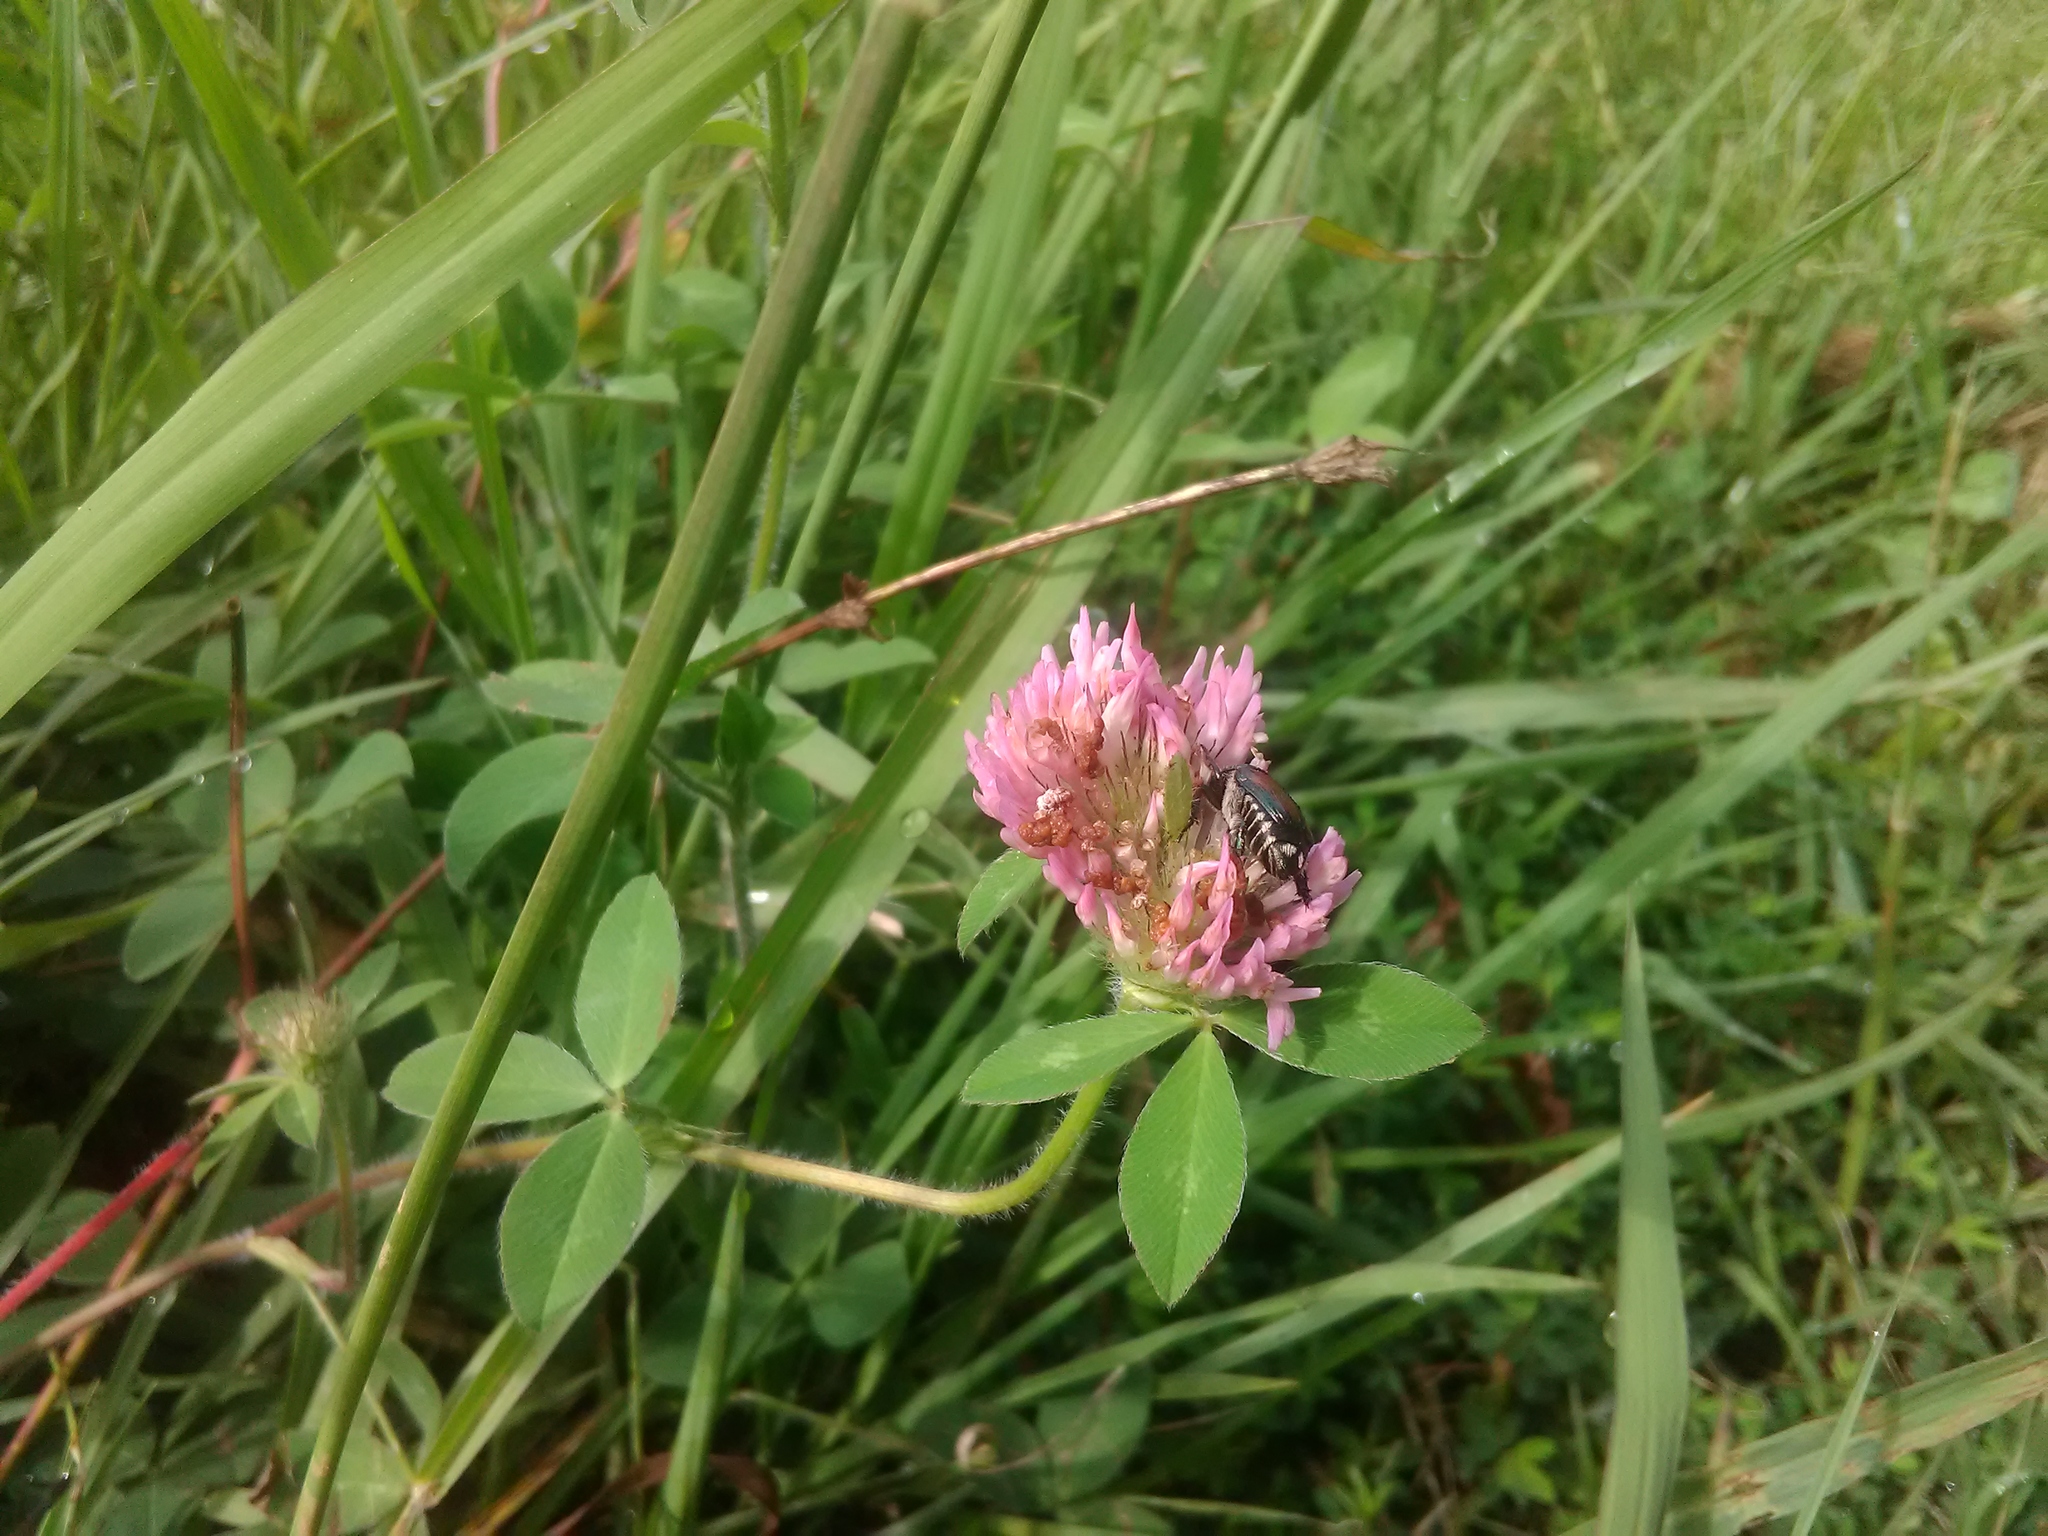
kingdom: Plantae
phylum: Tracheophyta
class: Magnoliopsida
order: Fabales
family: Fabaceae
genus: Trifolium
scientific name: Trifolium pratense
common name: Red clover
